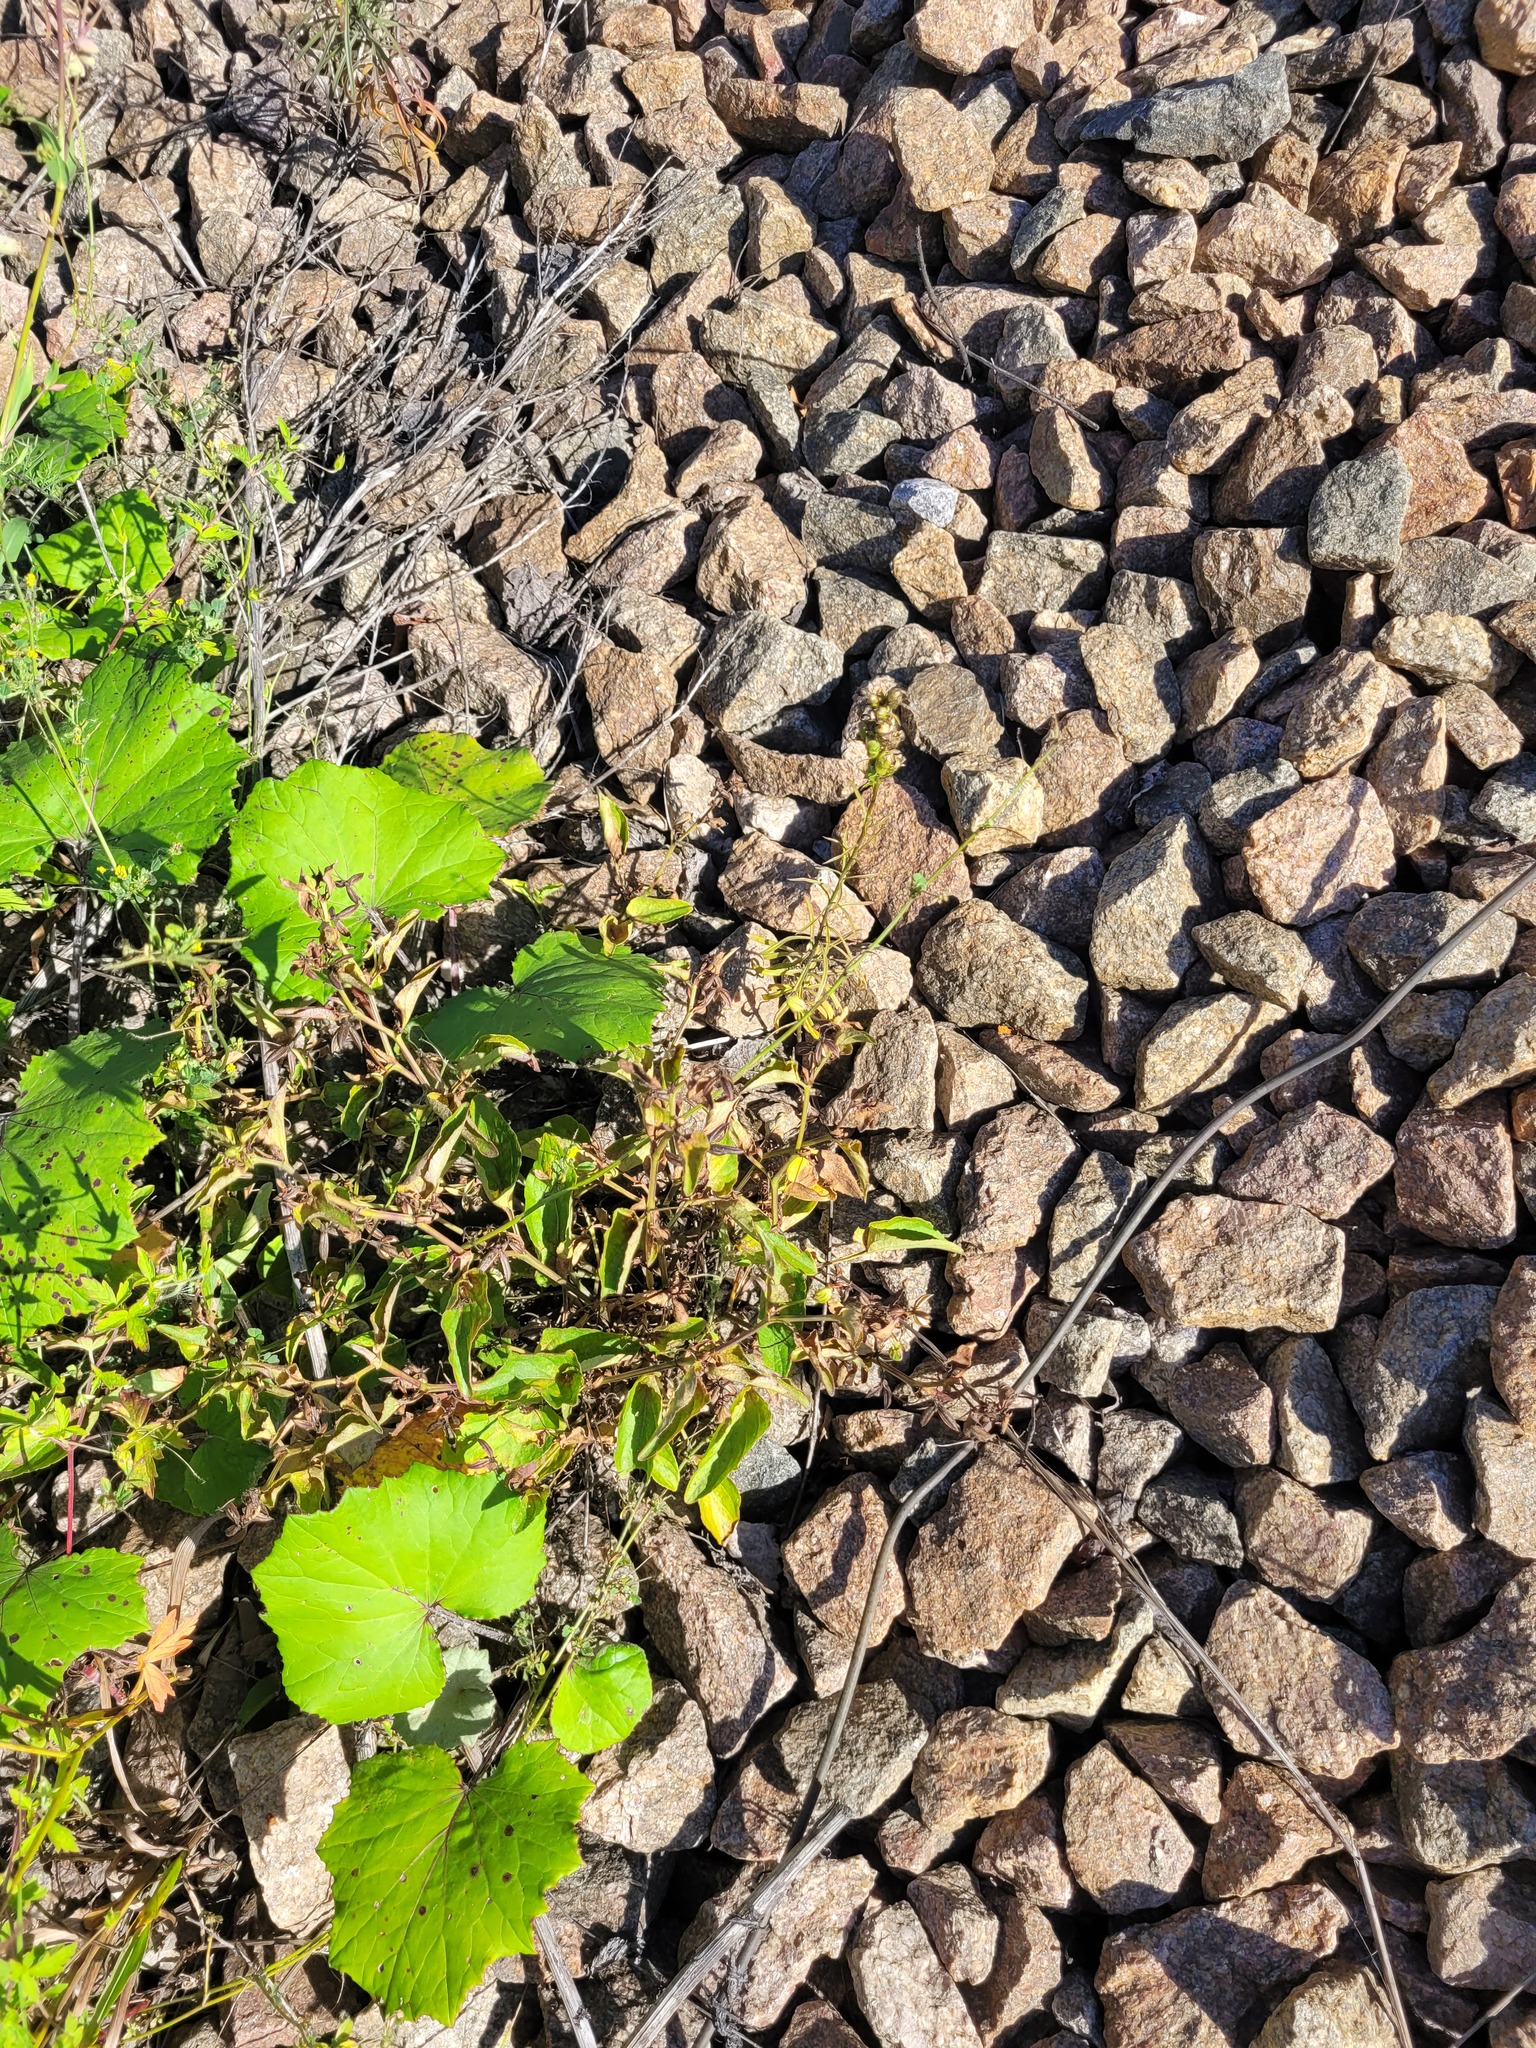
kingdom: Plantae
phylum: Tracheophyta
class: Magnoliopsida
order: Malpighiales
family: Violaceae
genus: Viola
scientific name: Viola canina
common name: Heath dog-violet
